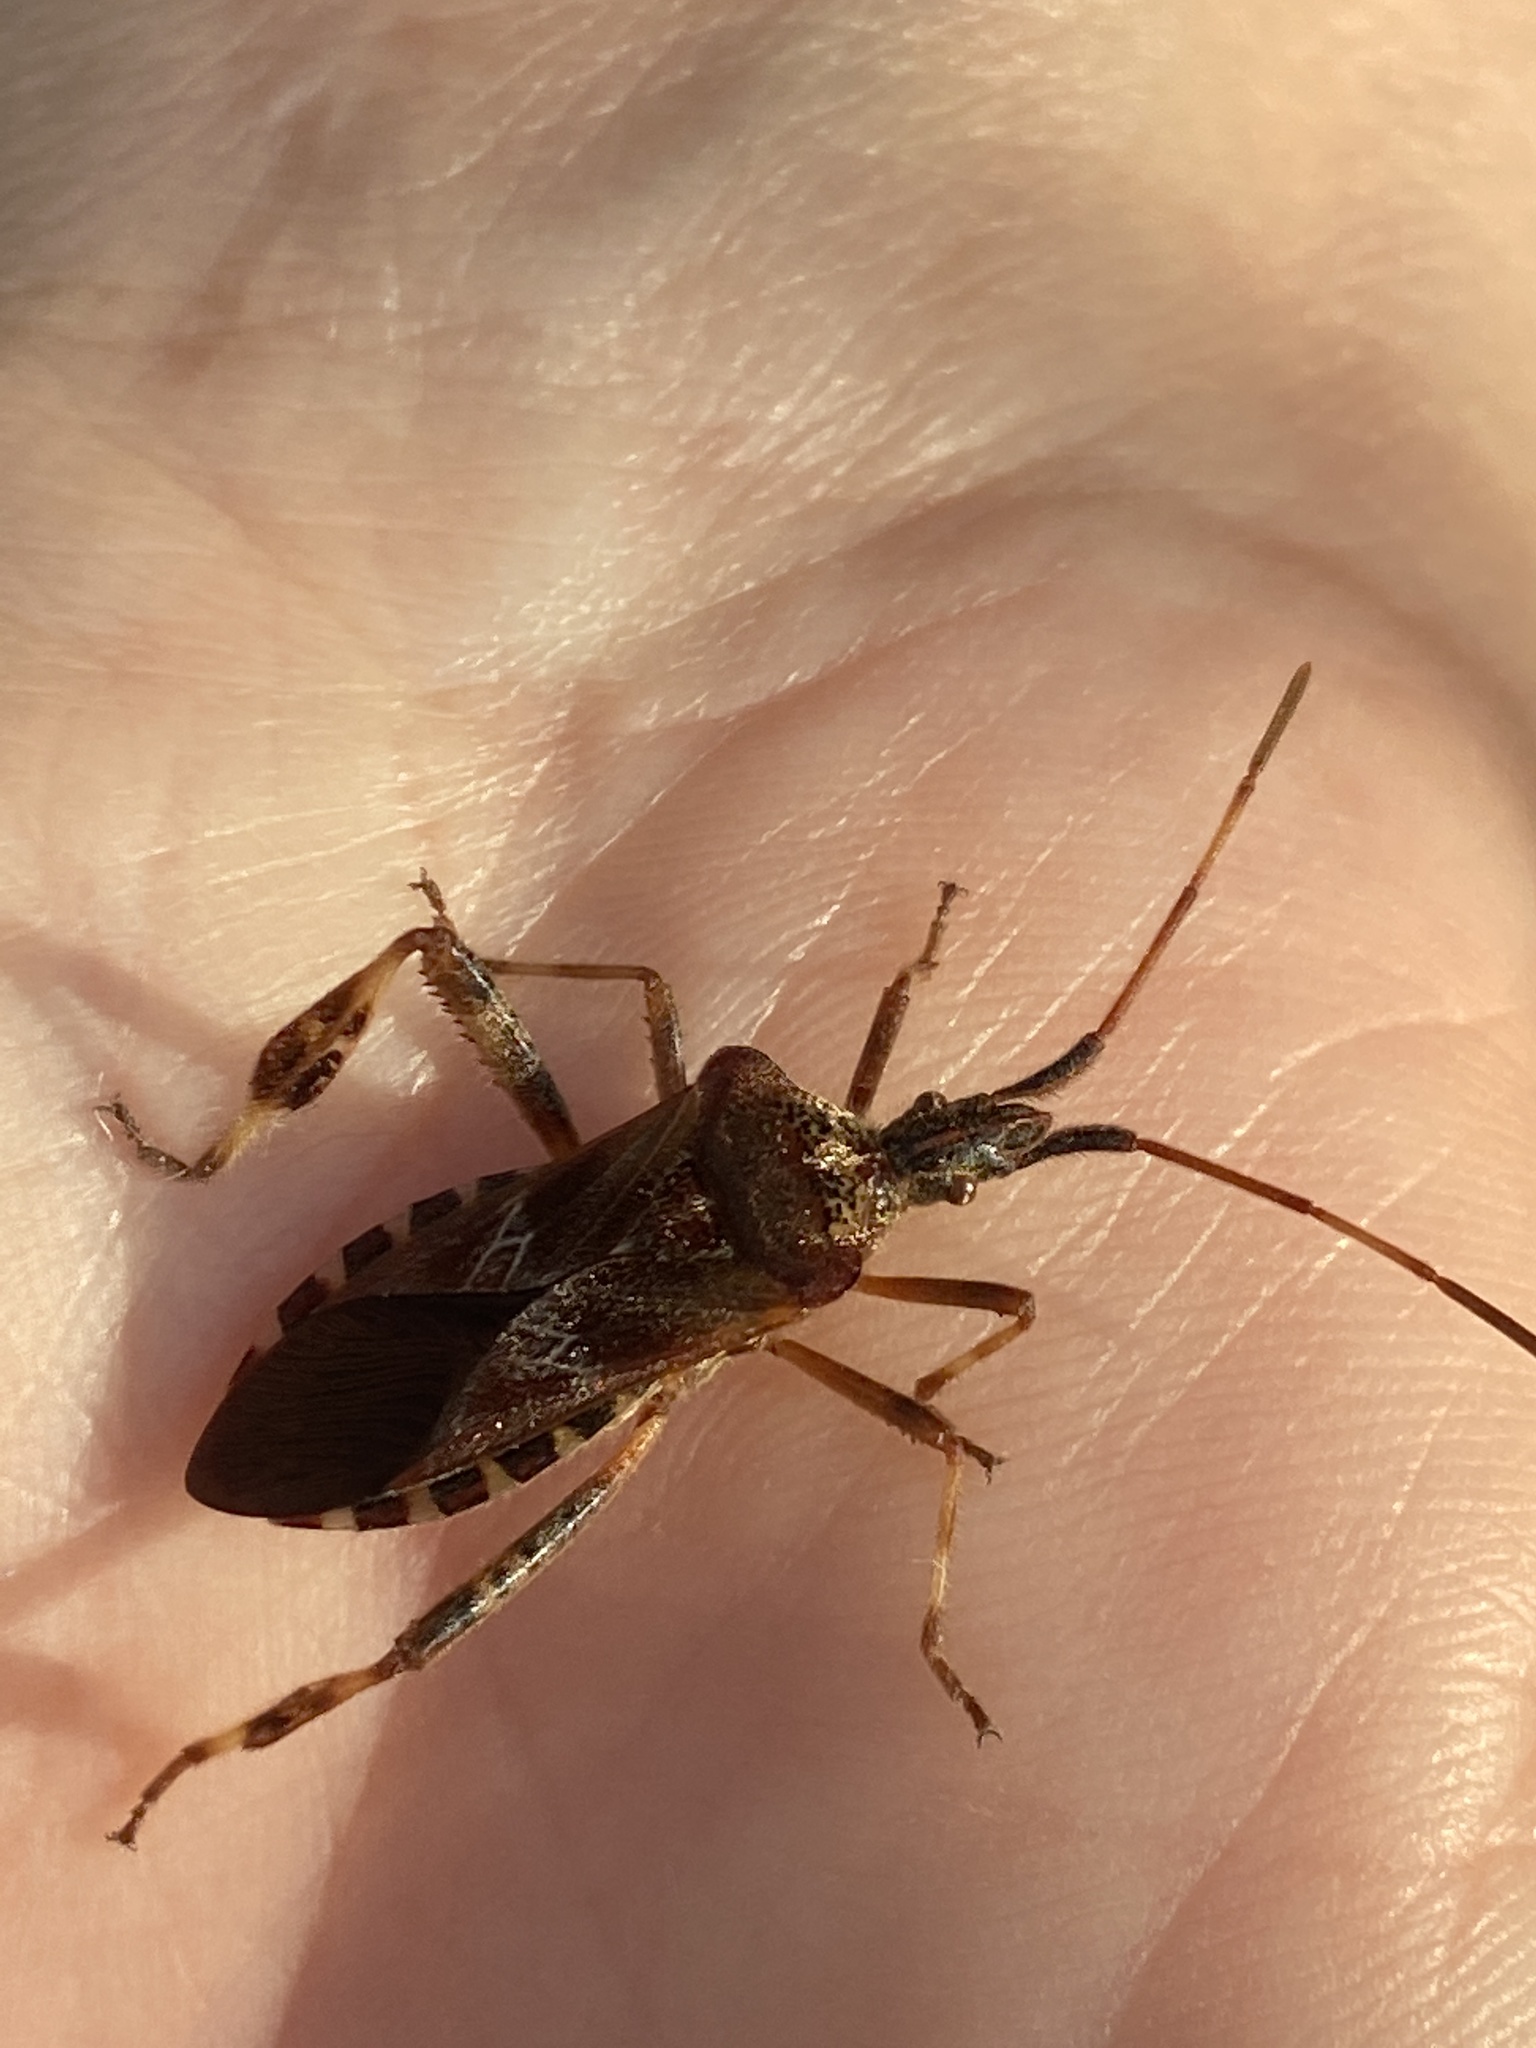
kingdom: Animalia
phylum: Arthropoda
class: Insecta
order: Hemiptera
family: Coreidae
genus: Leptoglossus
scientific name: Leptoglossus occidentalis
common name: Western conifer-seed bug
